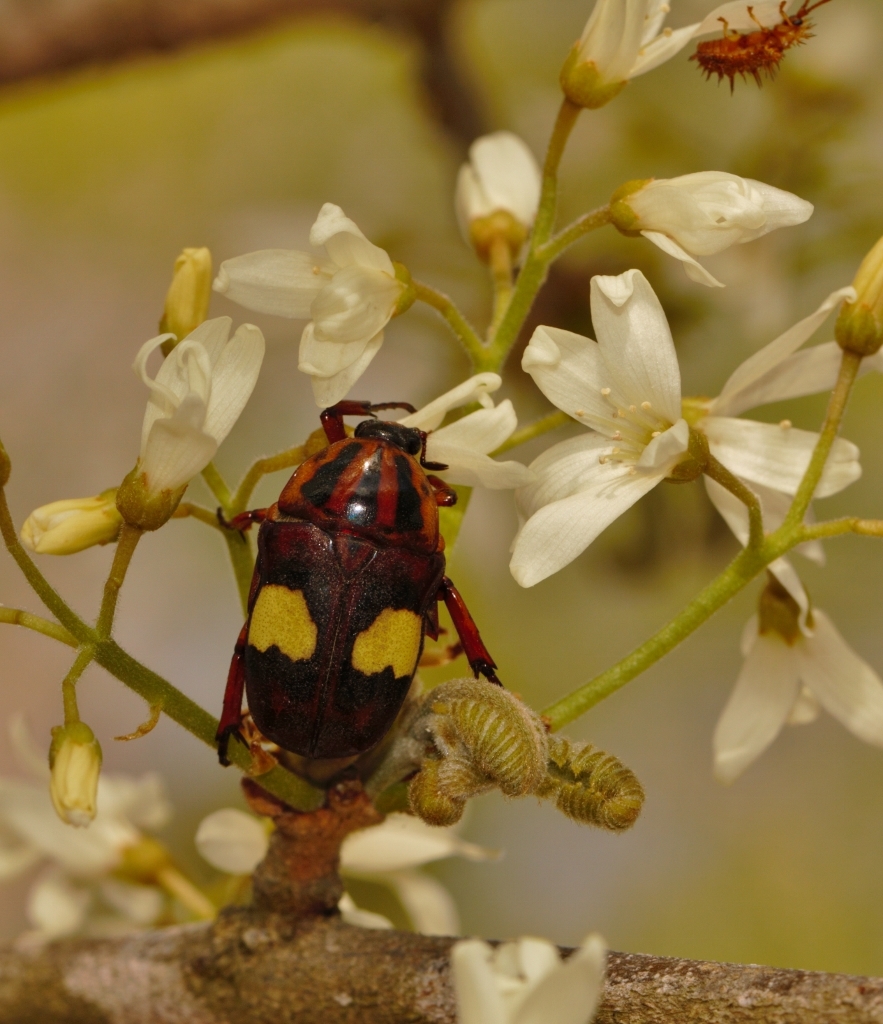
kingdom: Animalia
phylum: Arthropoda
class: Insecta
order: Coleoptera
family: Scarabaeidae
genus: Pedinorrhina
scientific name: Pedinorrhina
